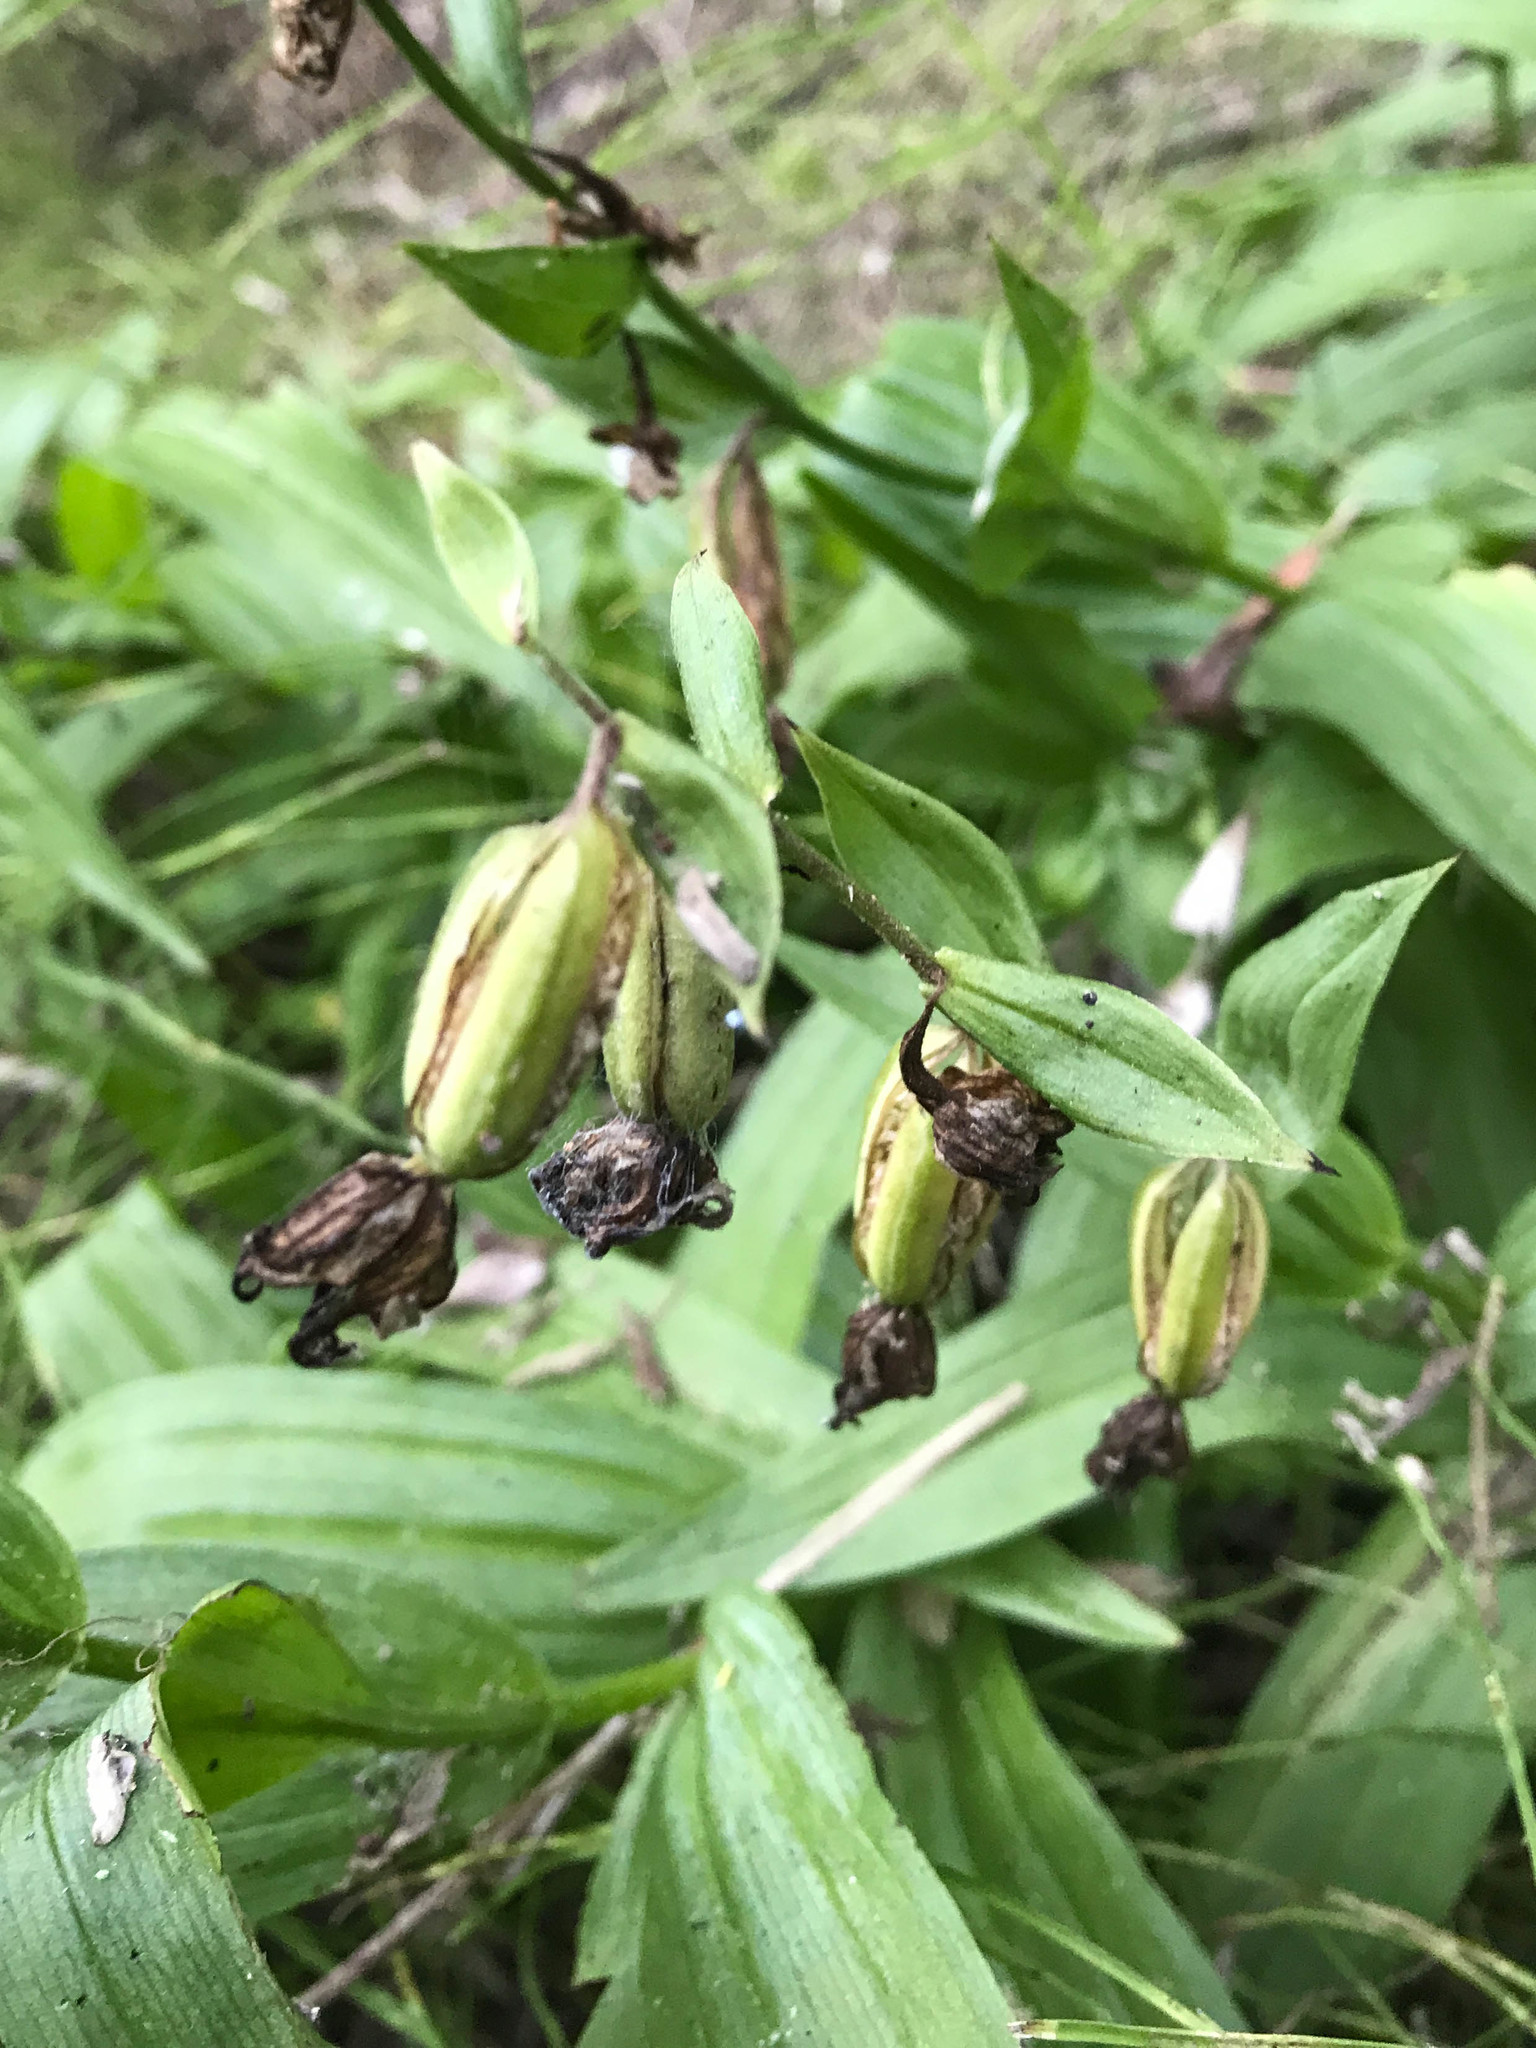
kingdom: Plantae
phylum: Tracheophyta
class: Liliopsida
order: Asparagales
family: Orchidaceae
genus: Epipactis
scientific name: Epipactis gigantea
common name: Chatterbox
